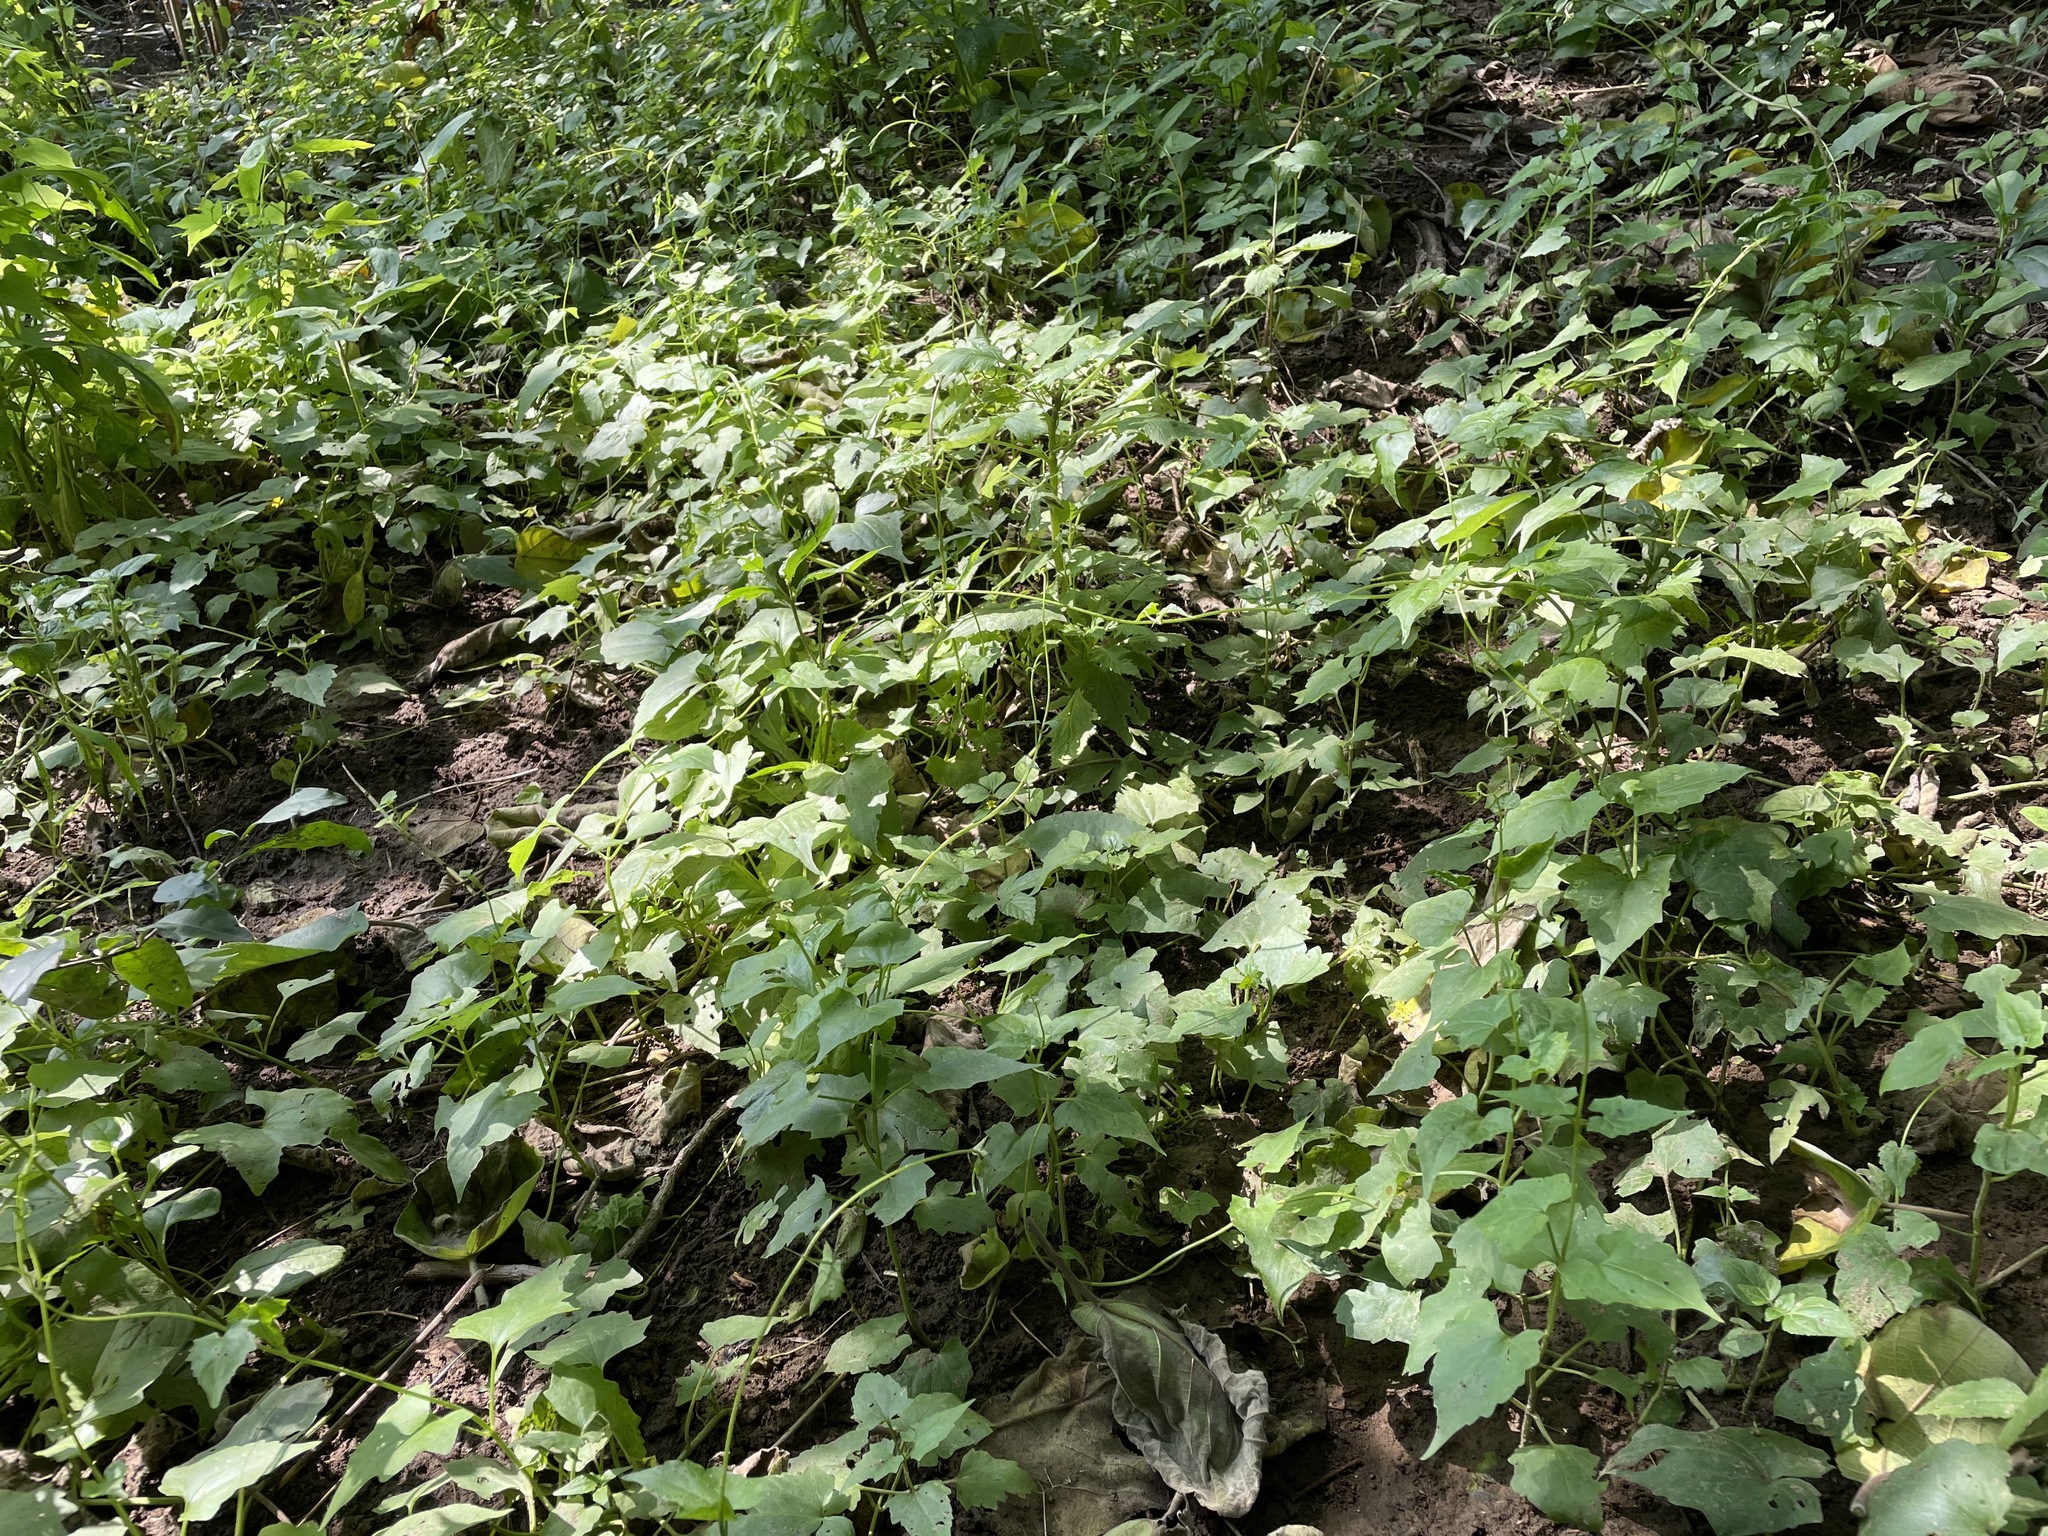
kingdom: Plantae
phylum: Tracheophyta
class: Magnoliopsida
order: Asterales
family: Asteraceae
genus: Mikania
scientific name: Mikania micrantha
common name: Mile-a-minute
